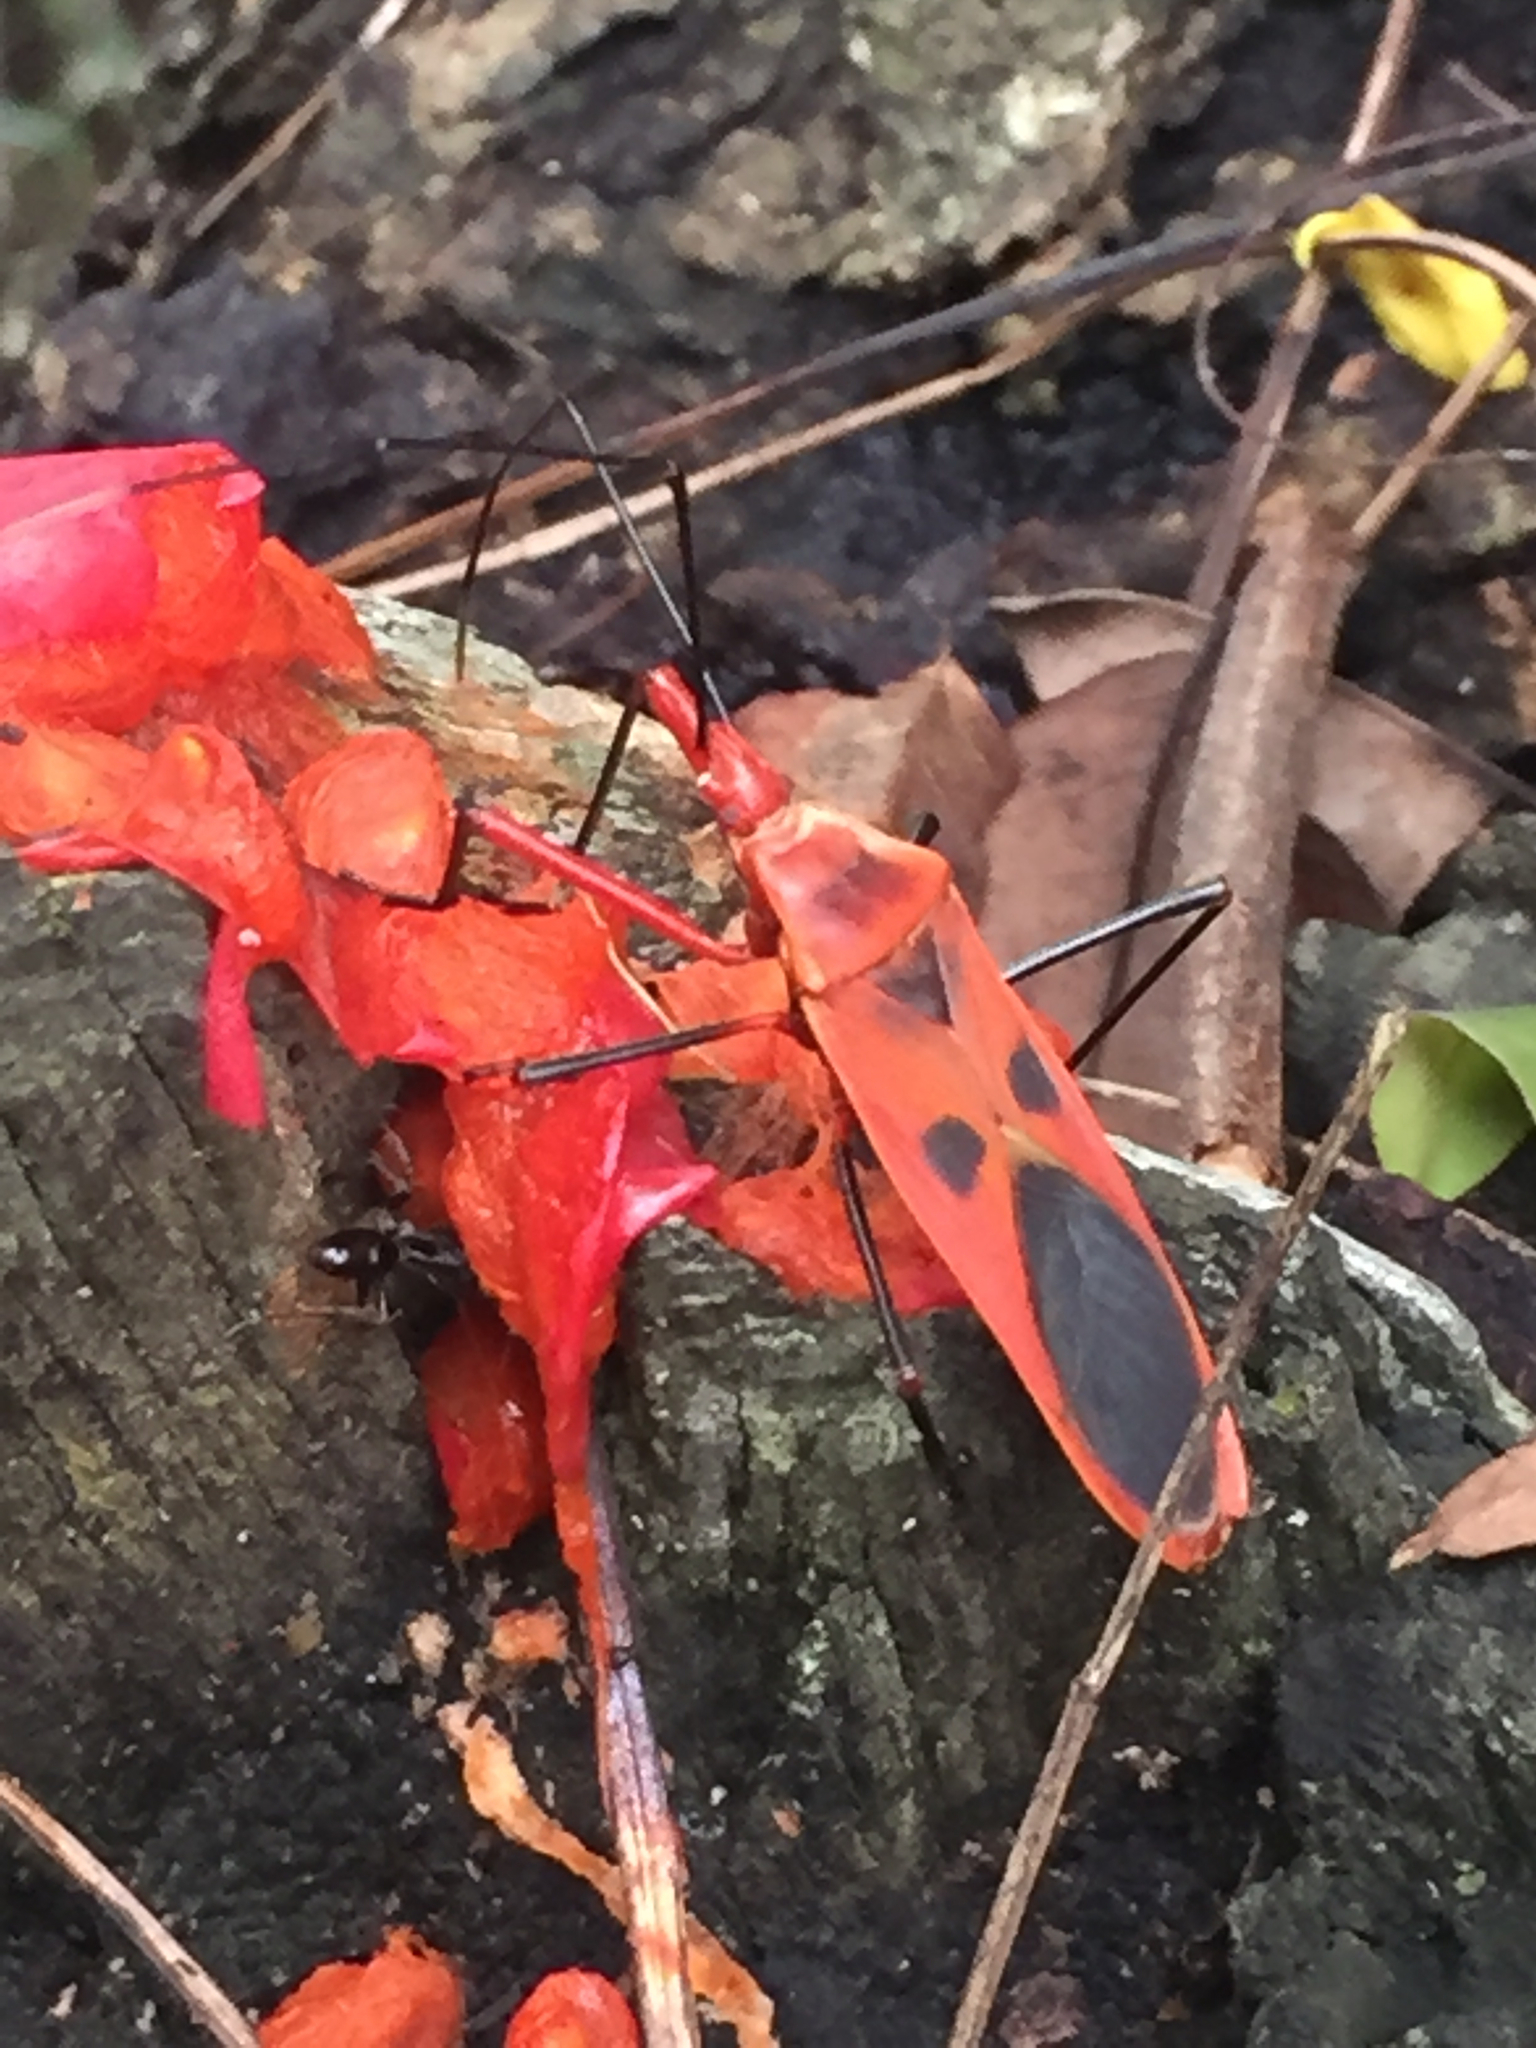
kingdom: Animalia
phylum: Arthropoda
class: Insecta
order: Hemiptera
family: Largidae
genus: Macrocheraia
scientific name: Macrocheraia grandis
